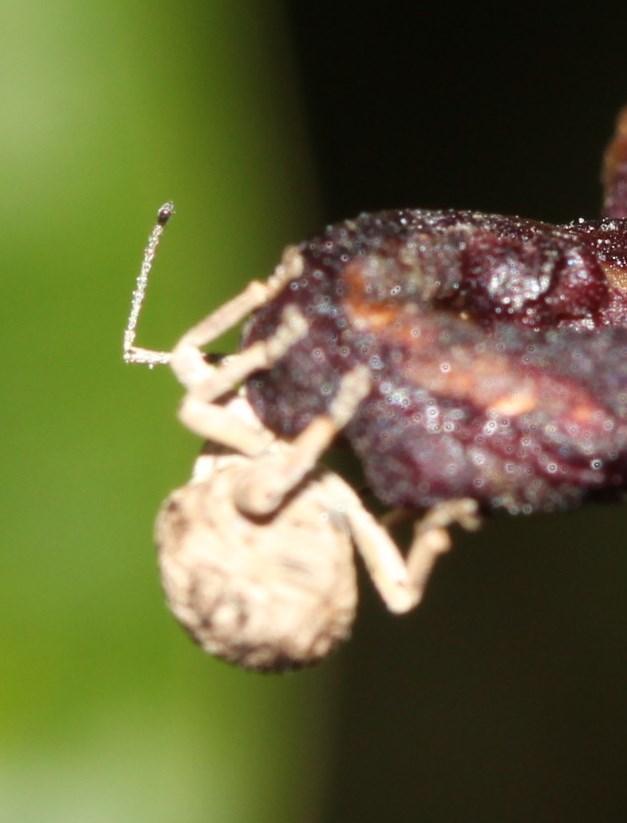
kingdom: Animalia
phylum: Arthropoda
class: Insecta
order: Coleoptera
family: Curculionidae
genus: Ellimenistes
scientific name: Ellimenistes laesicollis
